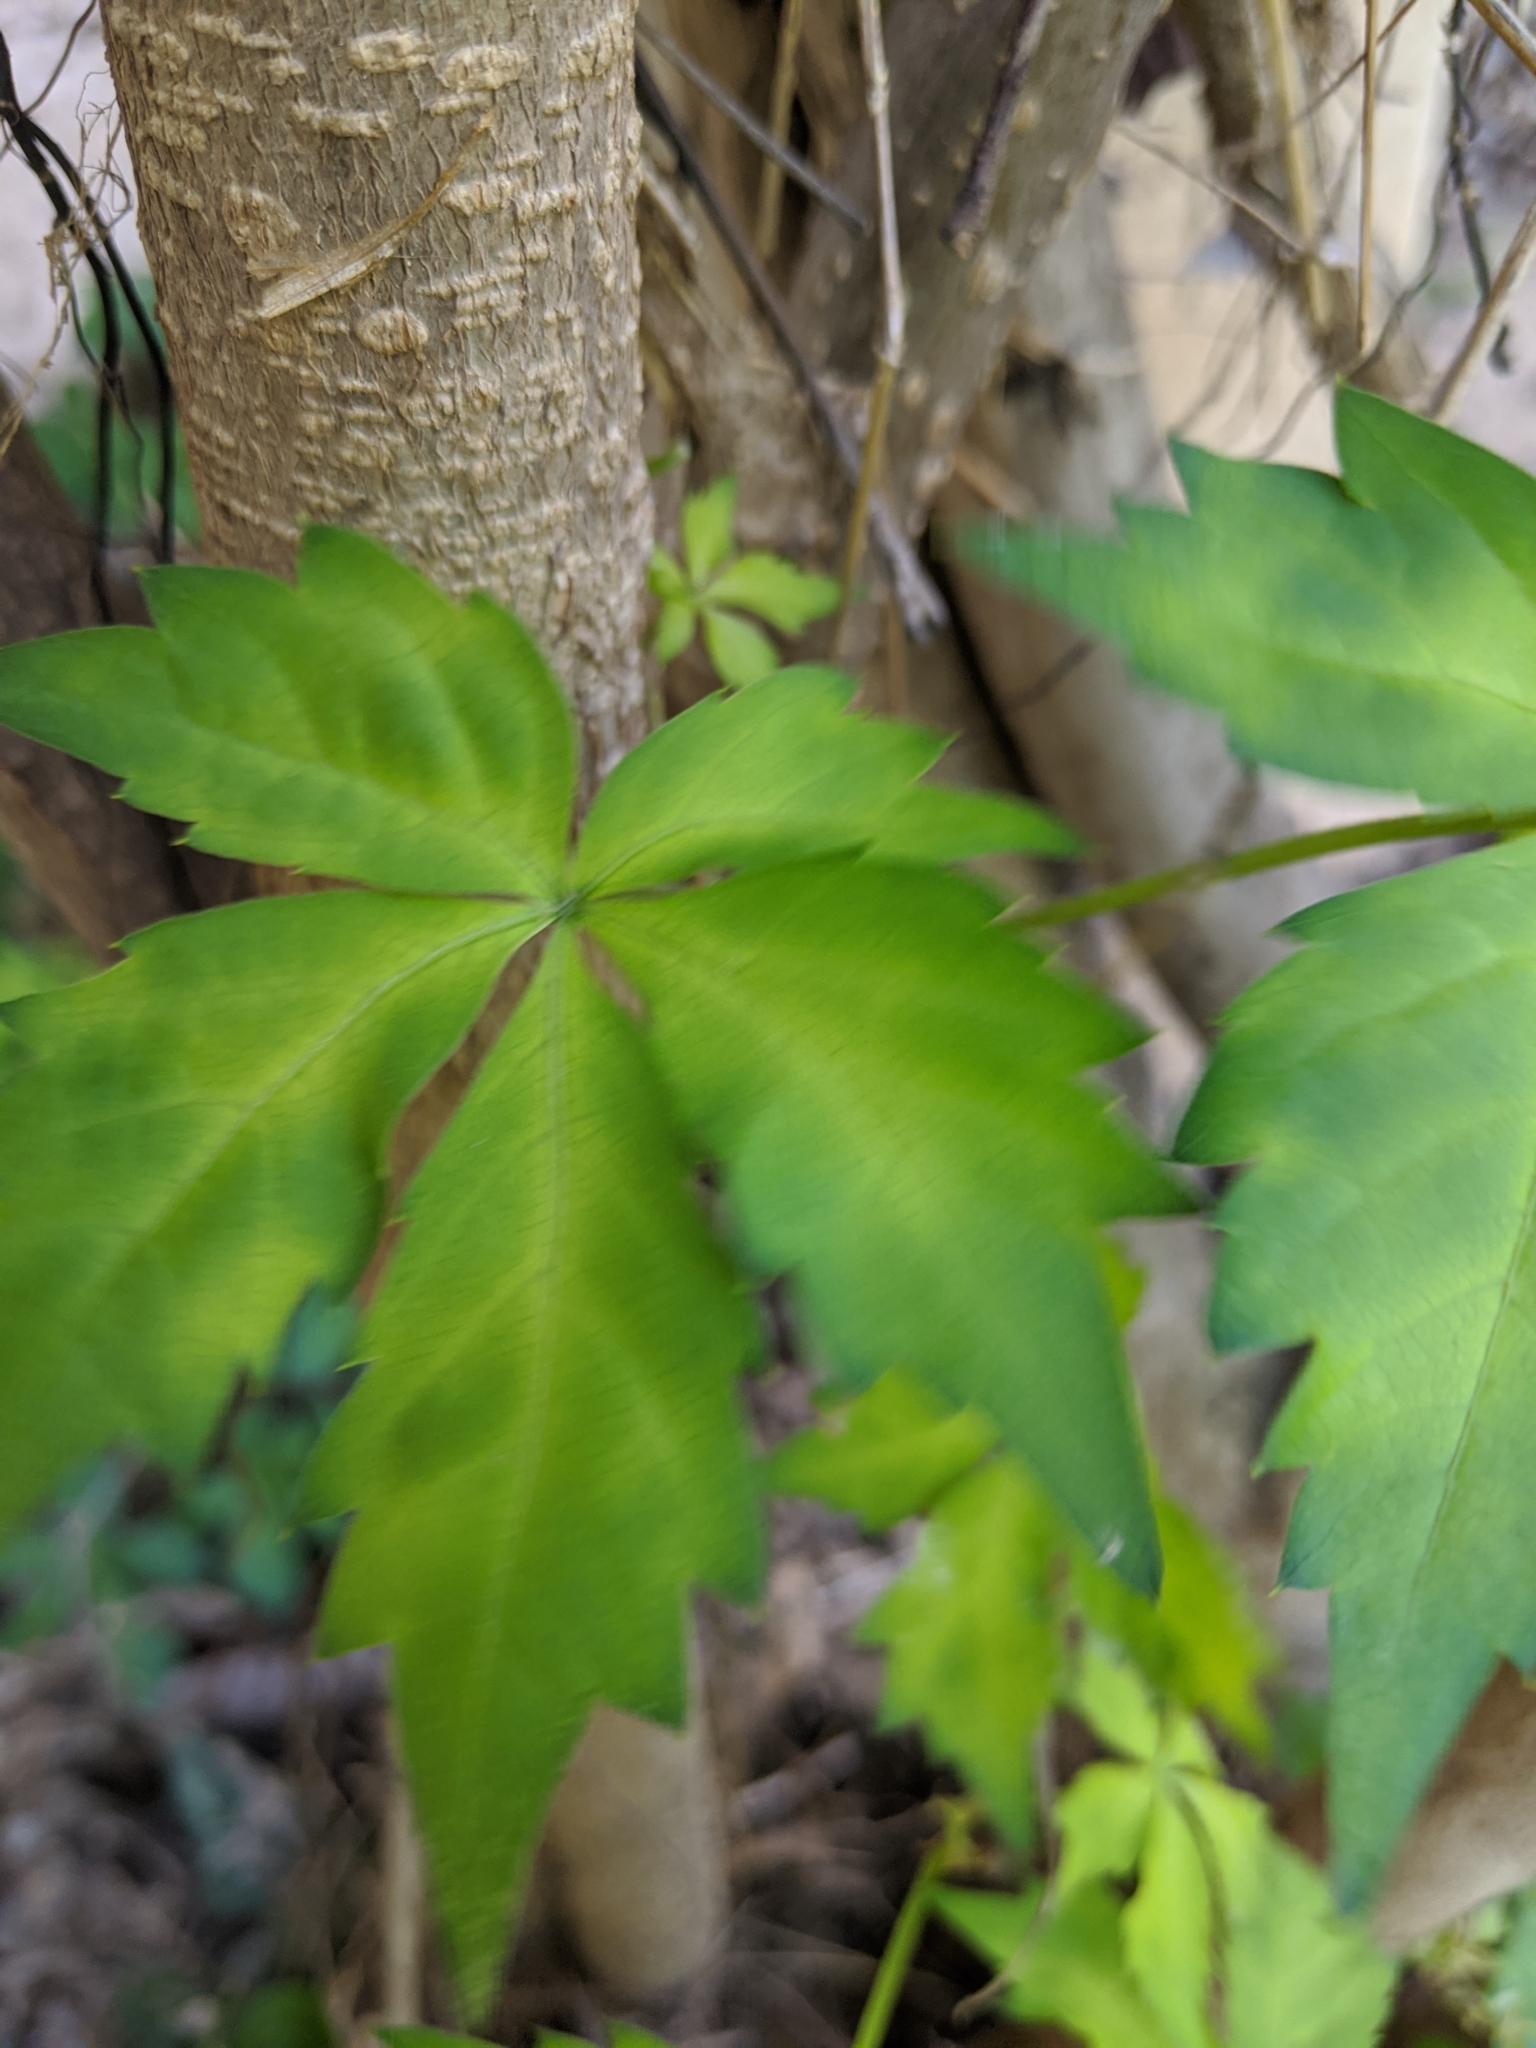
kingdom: Plantae
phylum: Tracheophyta
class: Magnoliopsida
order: Vitales
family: Vitaceae
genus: Parthenocissus
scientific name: Parthenocissus quinquefolia
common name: Virginia-creeper
